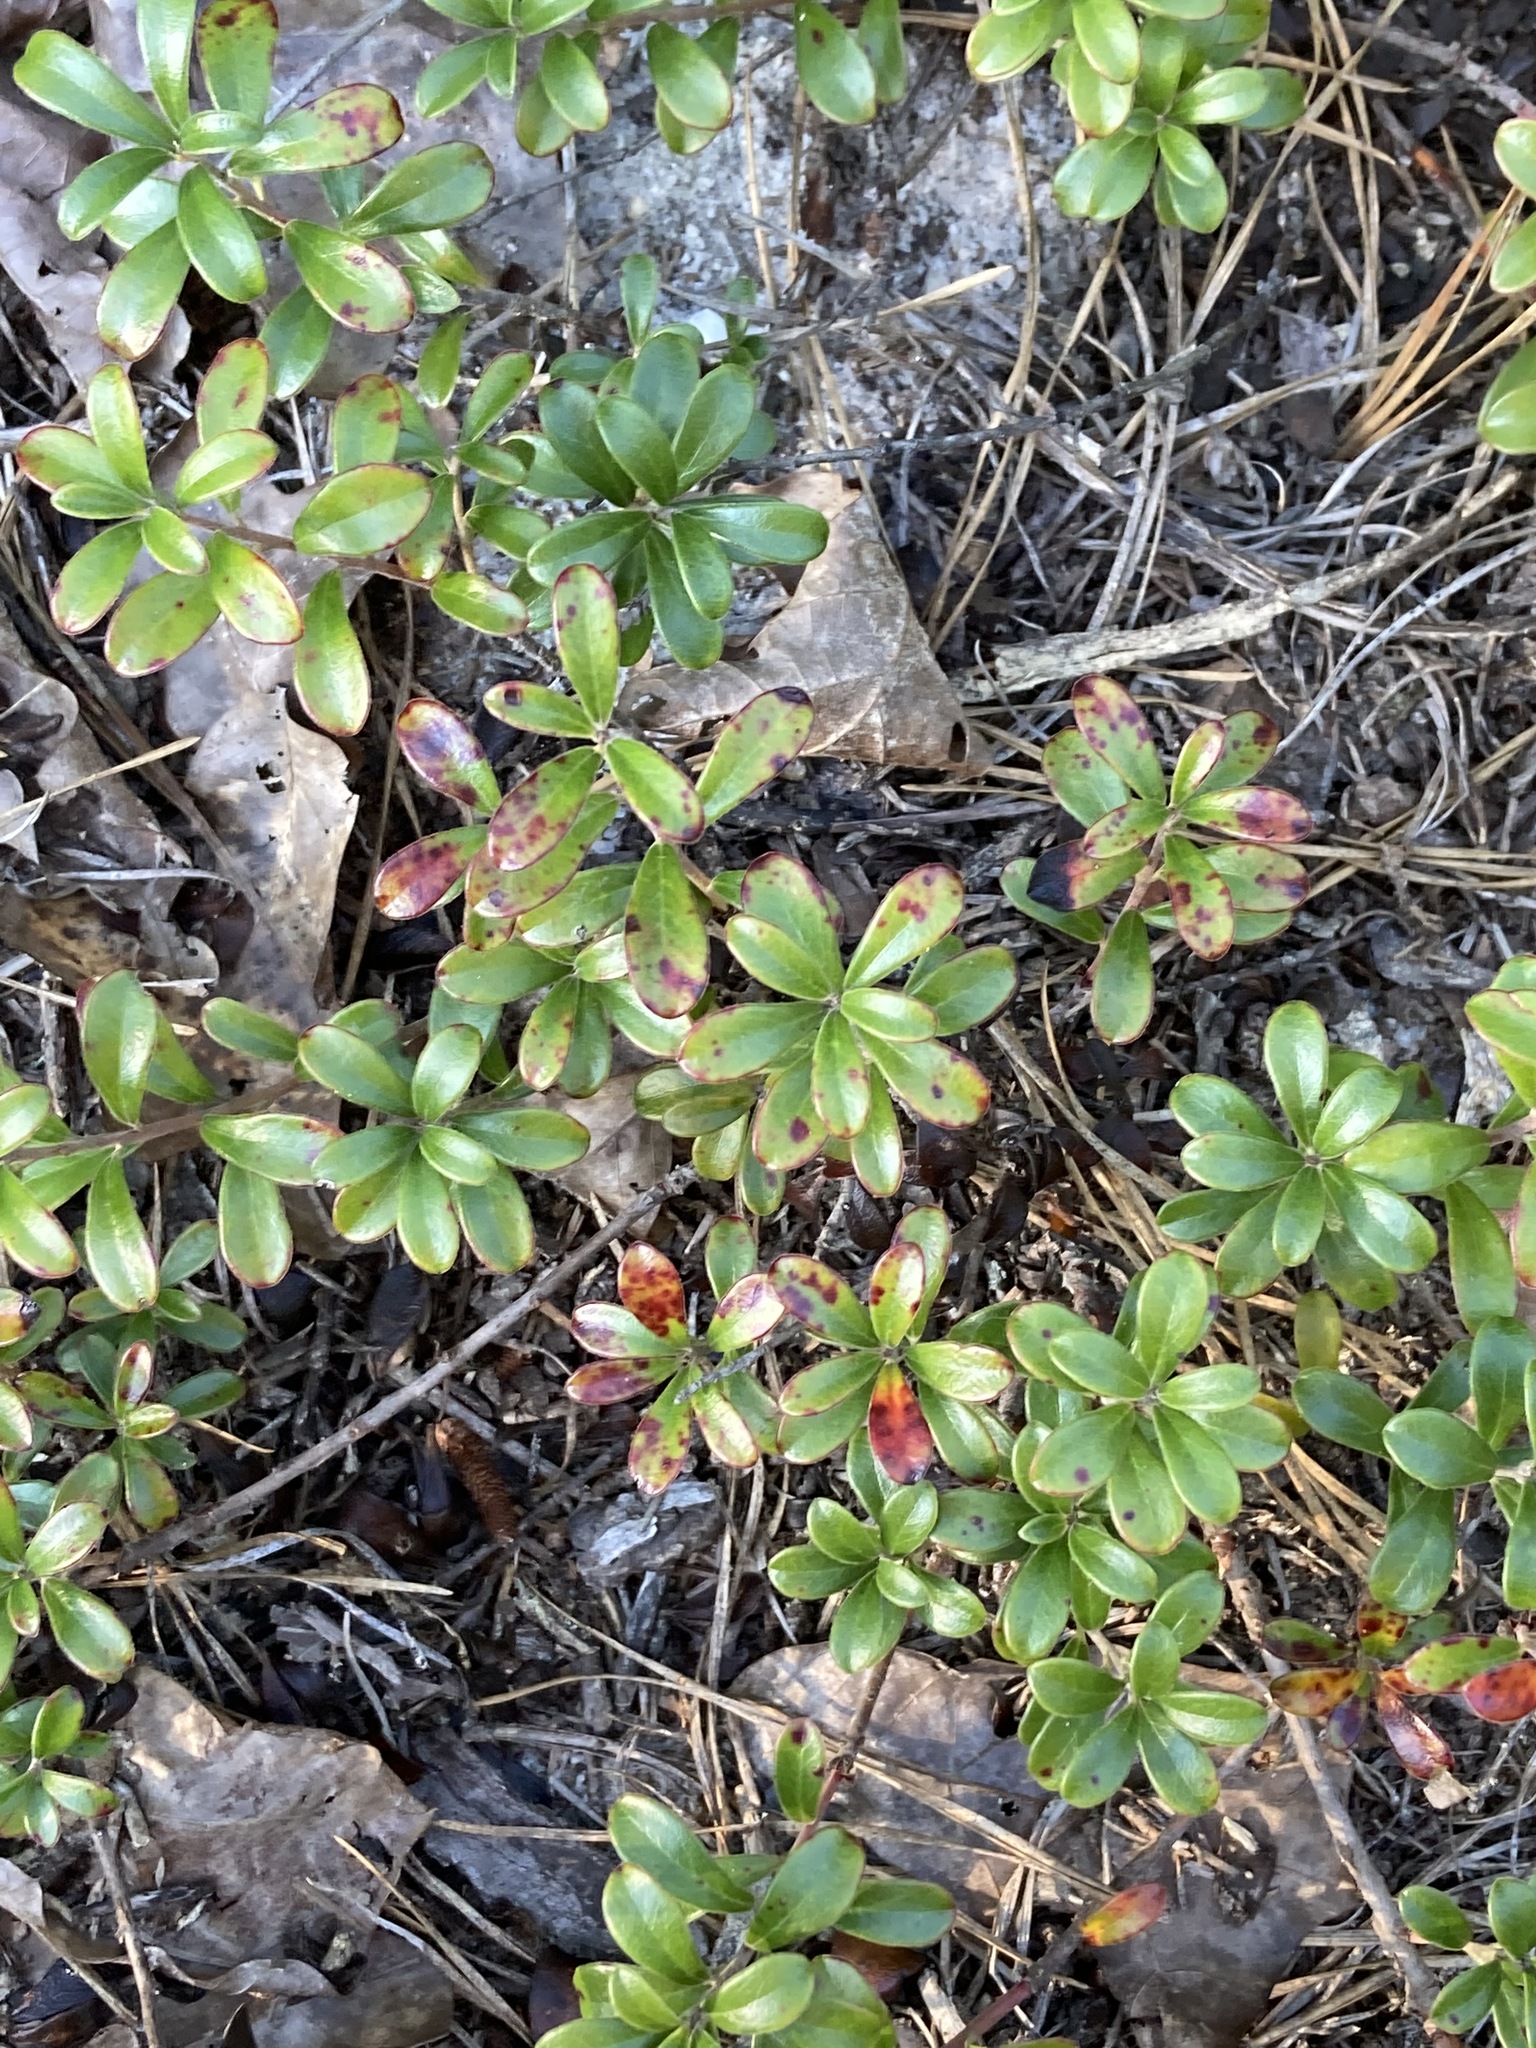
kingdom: Plantae
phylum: Tracheophyta
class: Magnoliopsida
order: Ericales
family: Ericaceae
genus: Arctostaphylos
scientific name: Arctostaphylos uva-ursi
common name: Bearberry
